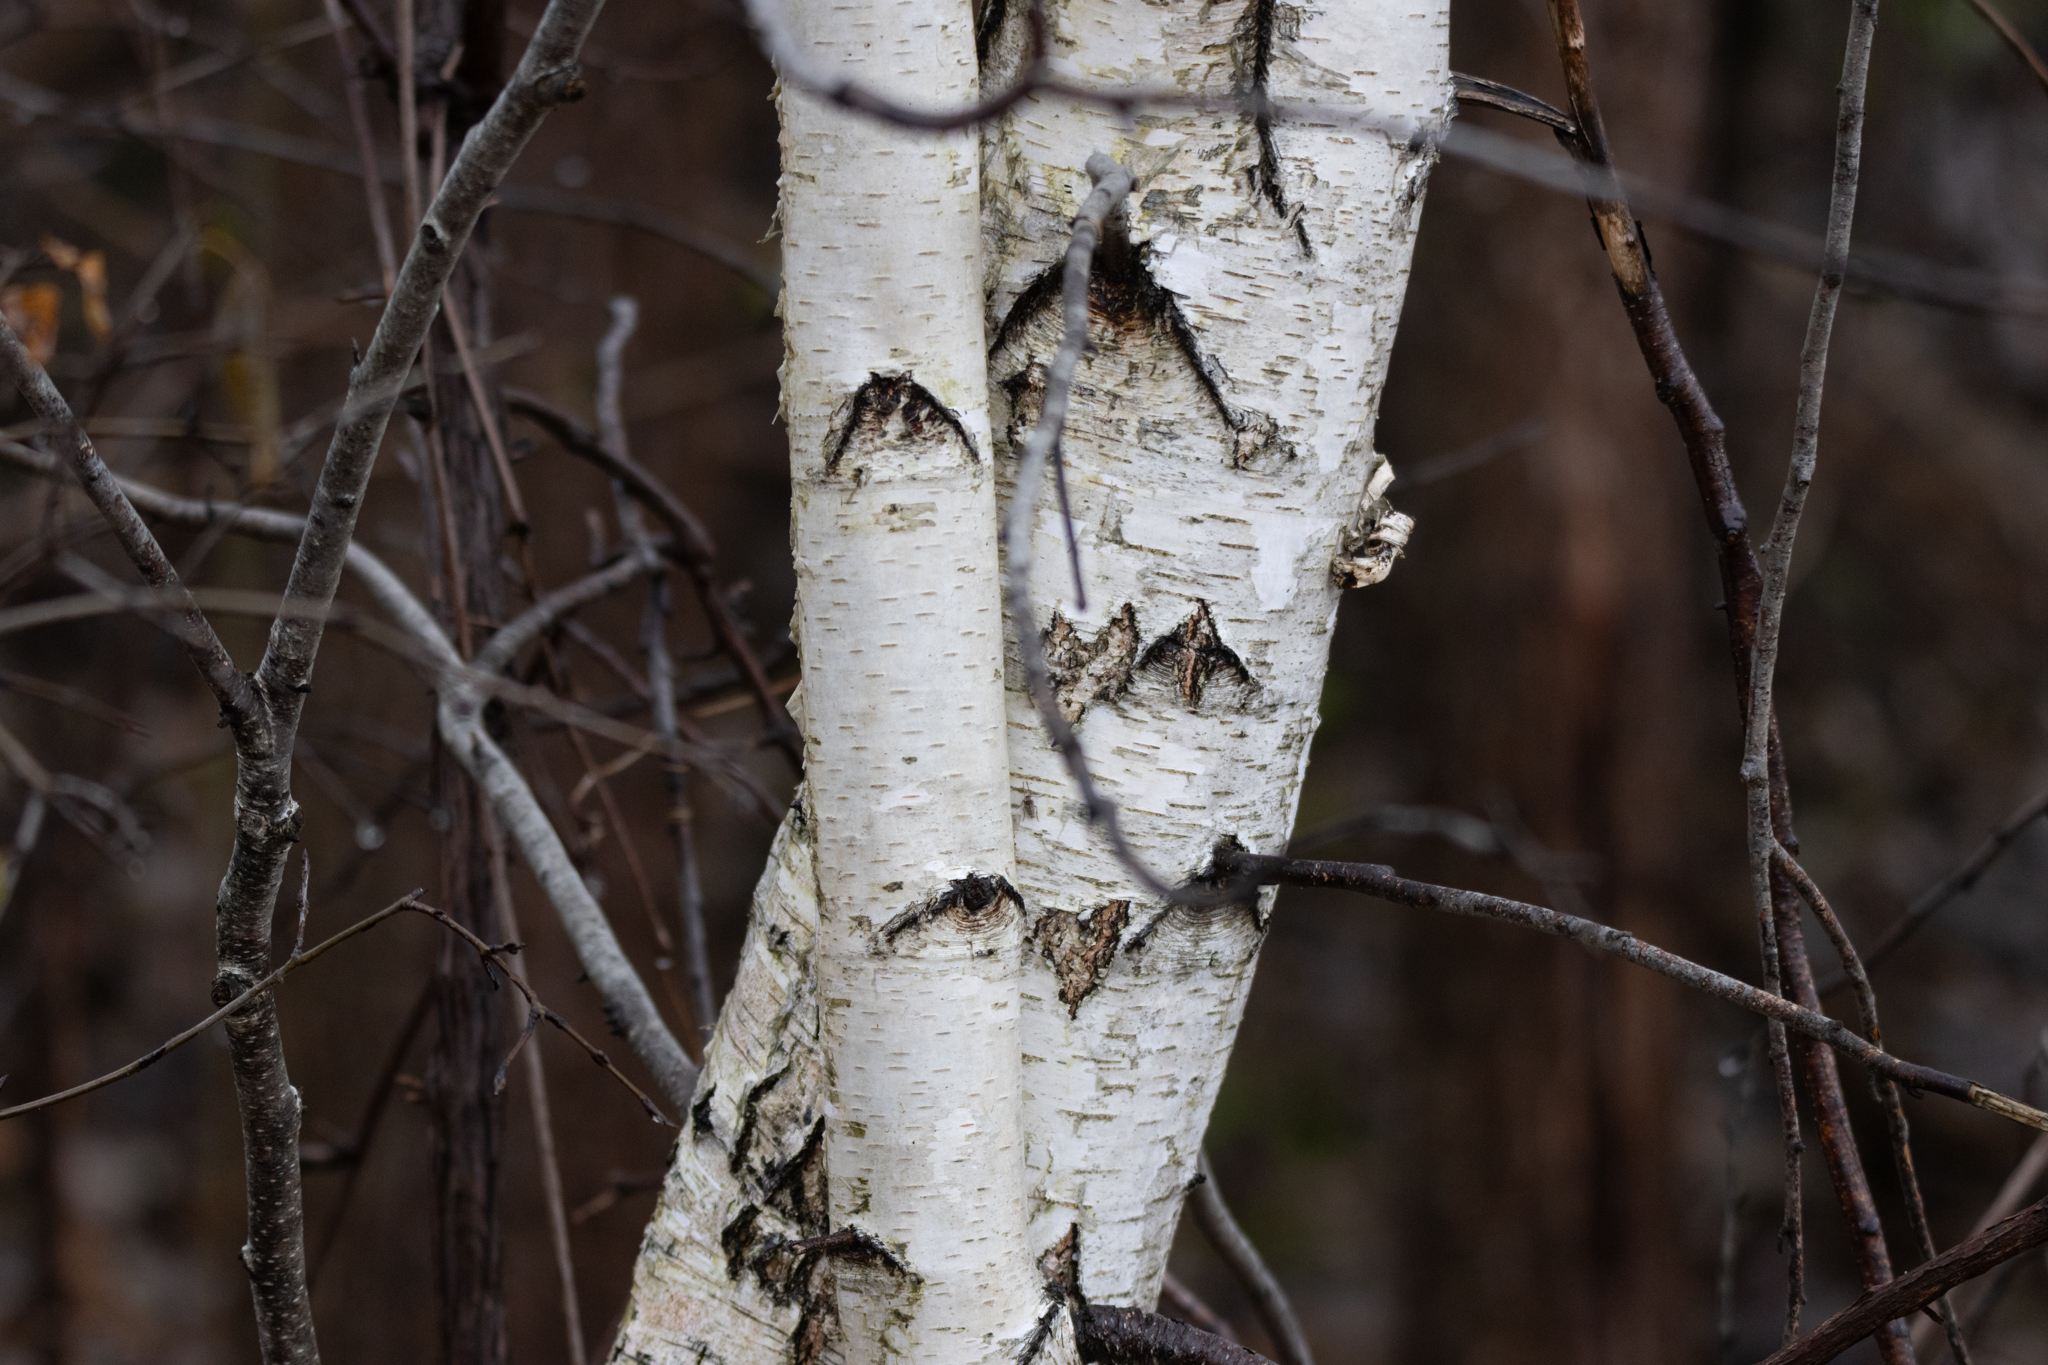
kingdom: Plantae
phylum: Tracheophyta
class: Magnoliopsida
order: Fagales
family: Betulaceae
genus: Betula
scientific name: Betula papyrifera
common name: Paper birch
